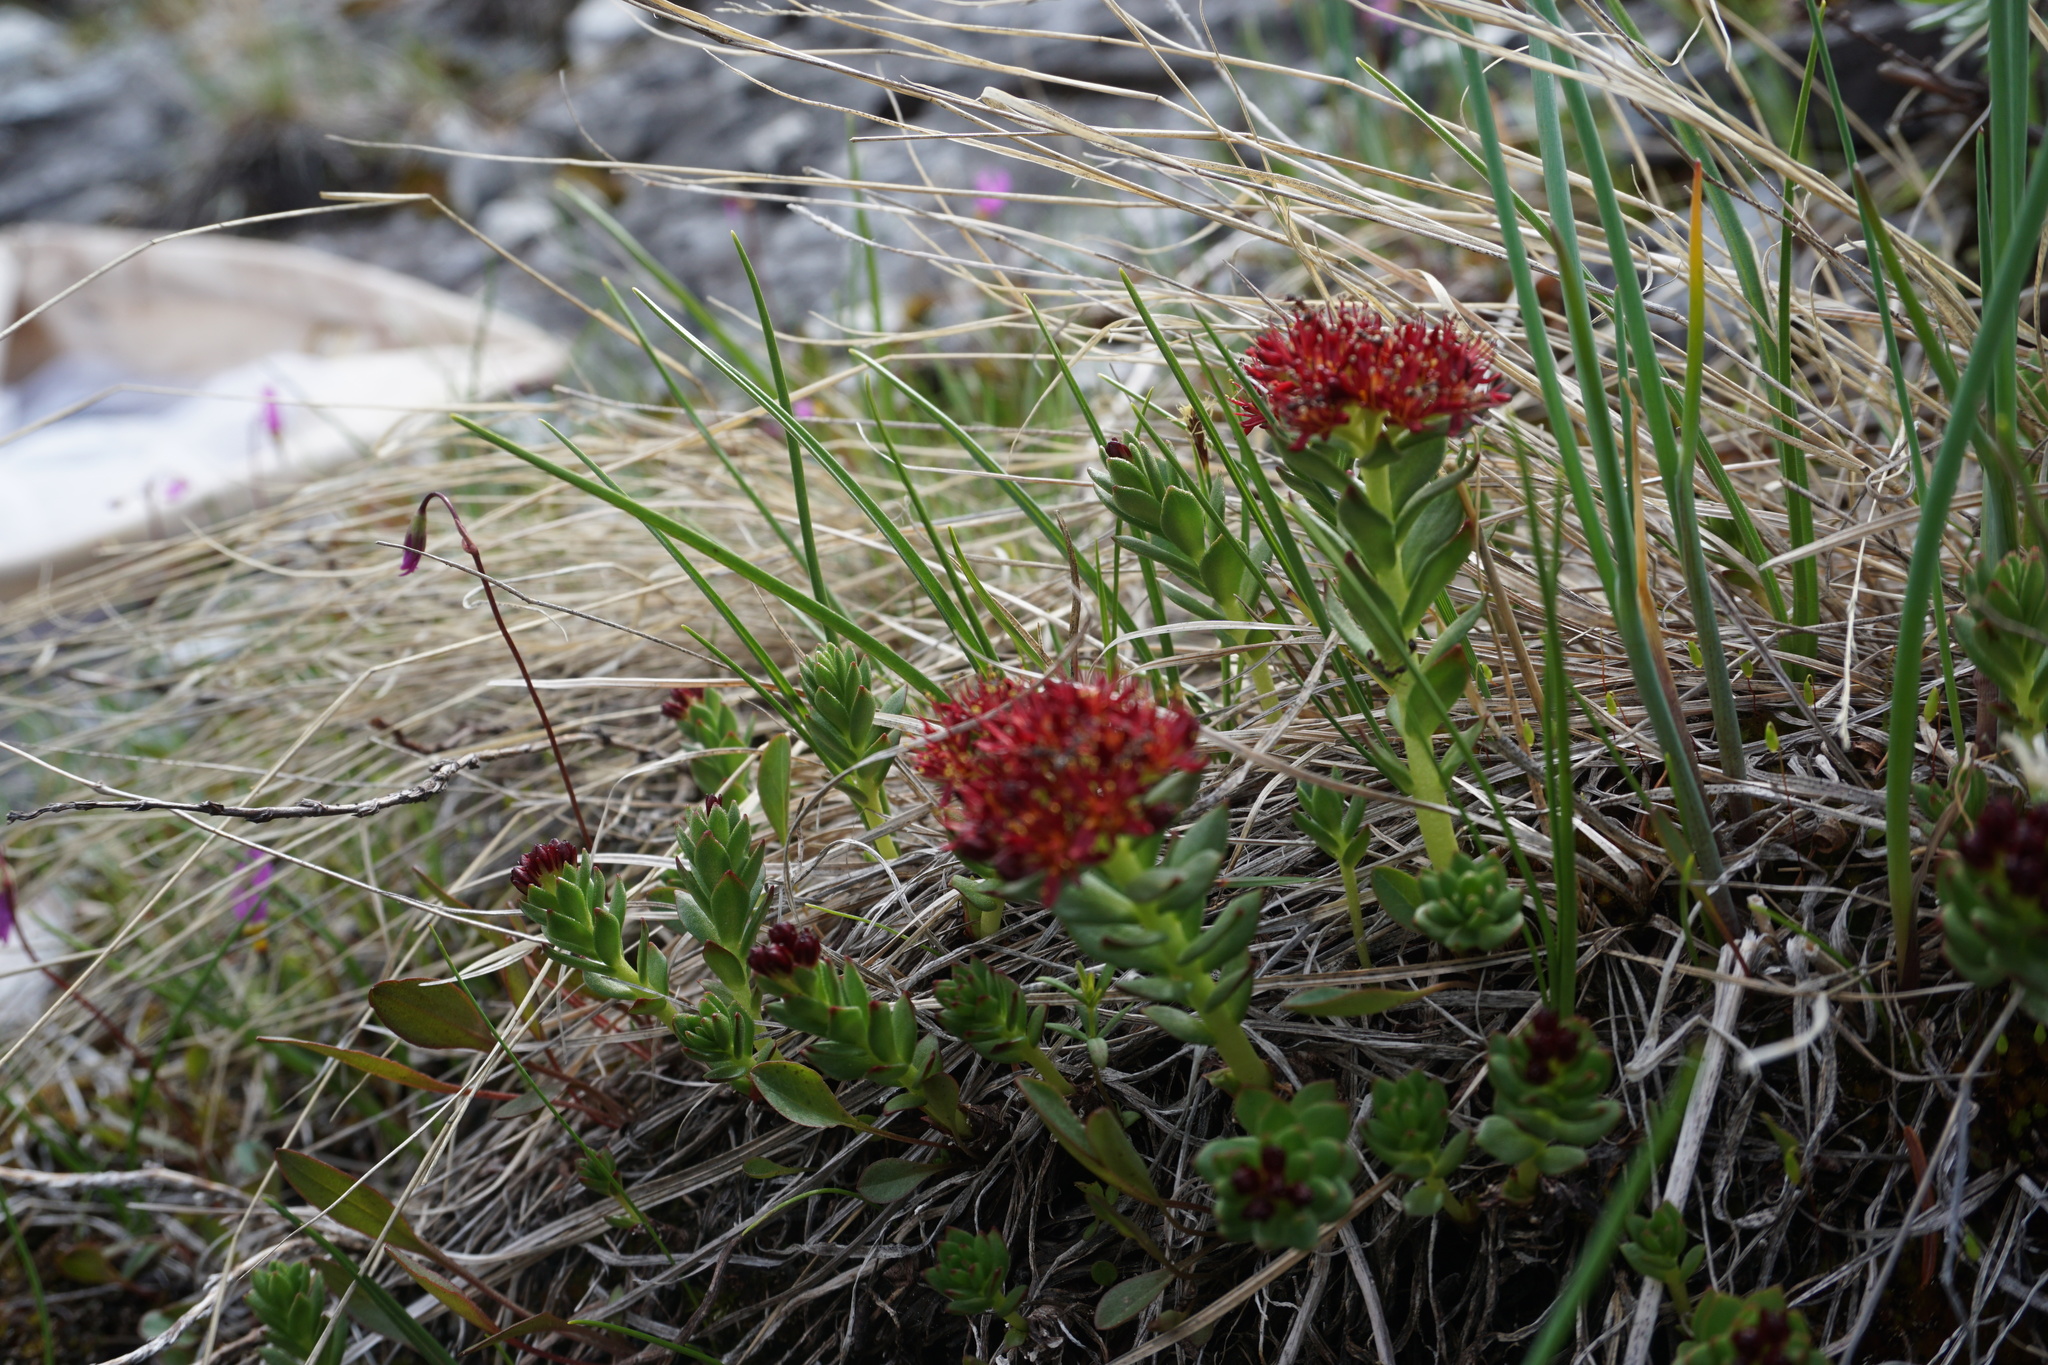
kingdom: Plantae
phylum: Tracheophyta
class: Magnoliopsida
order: Saxifragales
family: Crassulaceae
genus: Rhodiola
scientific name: Rhodiola integrifolia
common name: Western roseroot
